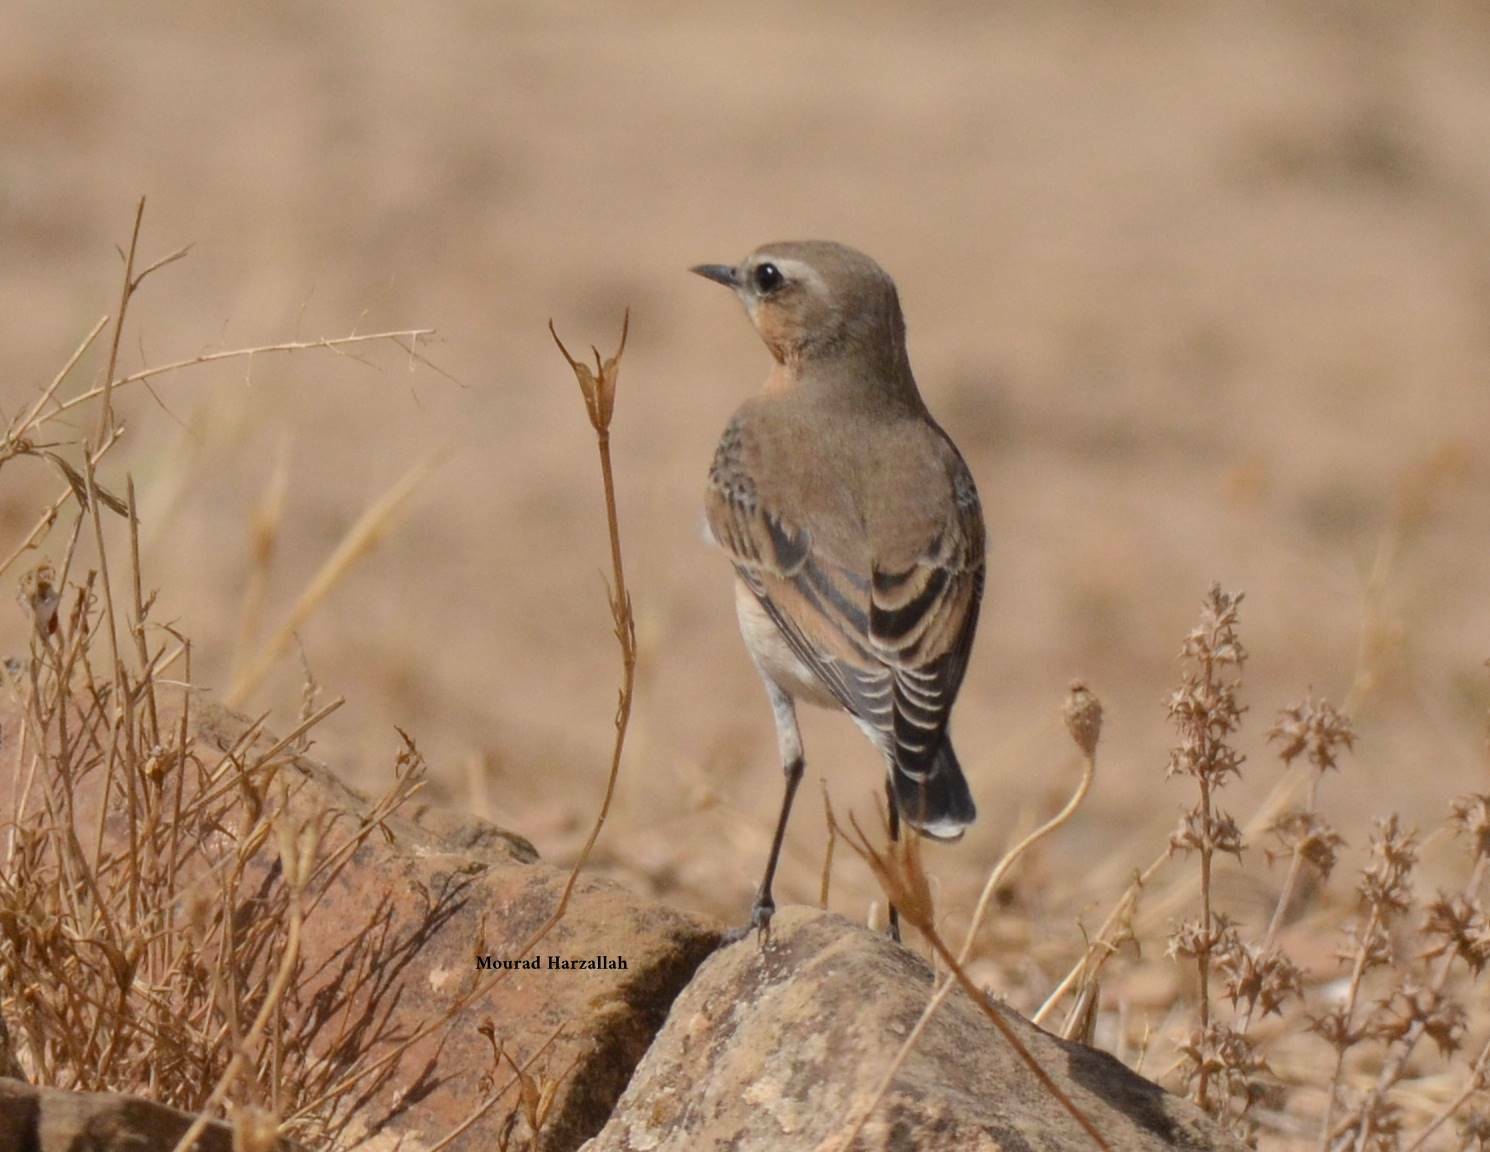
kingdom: Animalia
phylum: Chordata
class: Aves
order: Passeriformes
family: Muscicapidae
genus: Oenanthe
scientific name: Oenanthe oenanthe
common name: Northern wheatear
